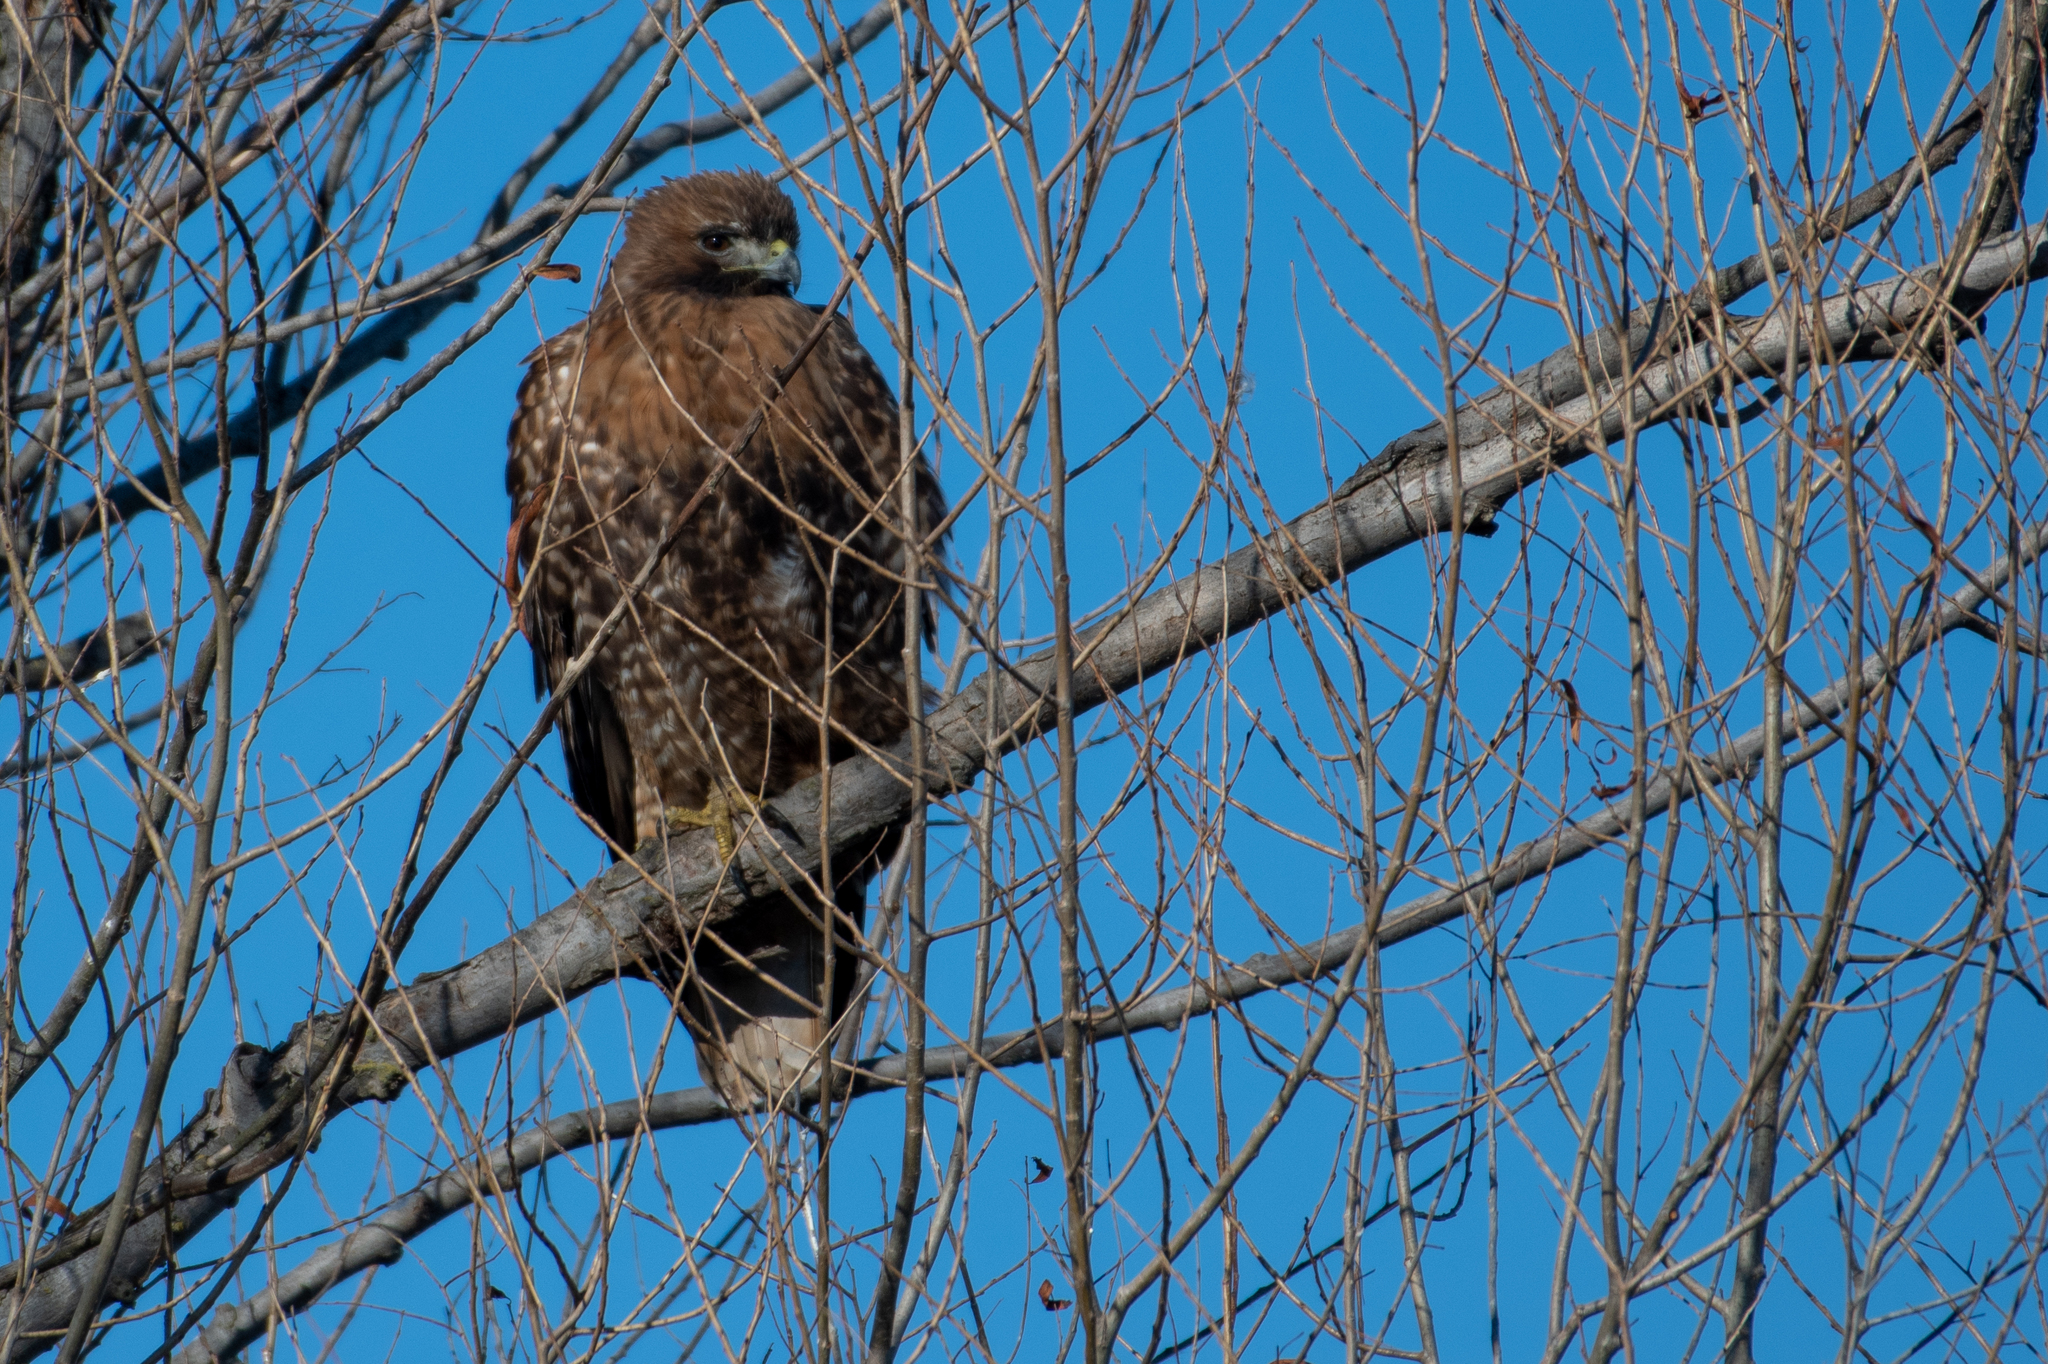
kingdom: Animalia
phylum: Chordata
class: Aves
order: Accipitriformes
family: Accipitridae
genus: Buteo
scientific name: Buteo jamaicensis
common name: Red-tailed hawk
